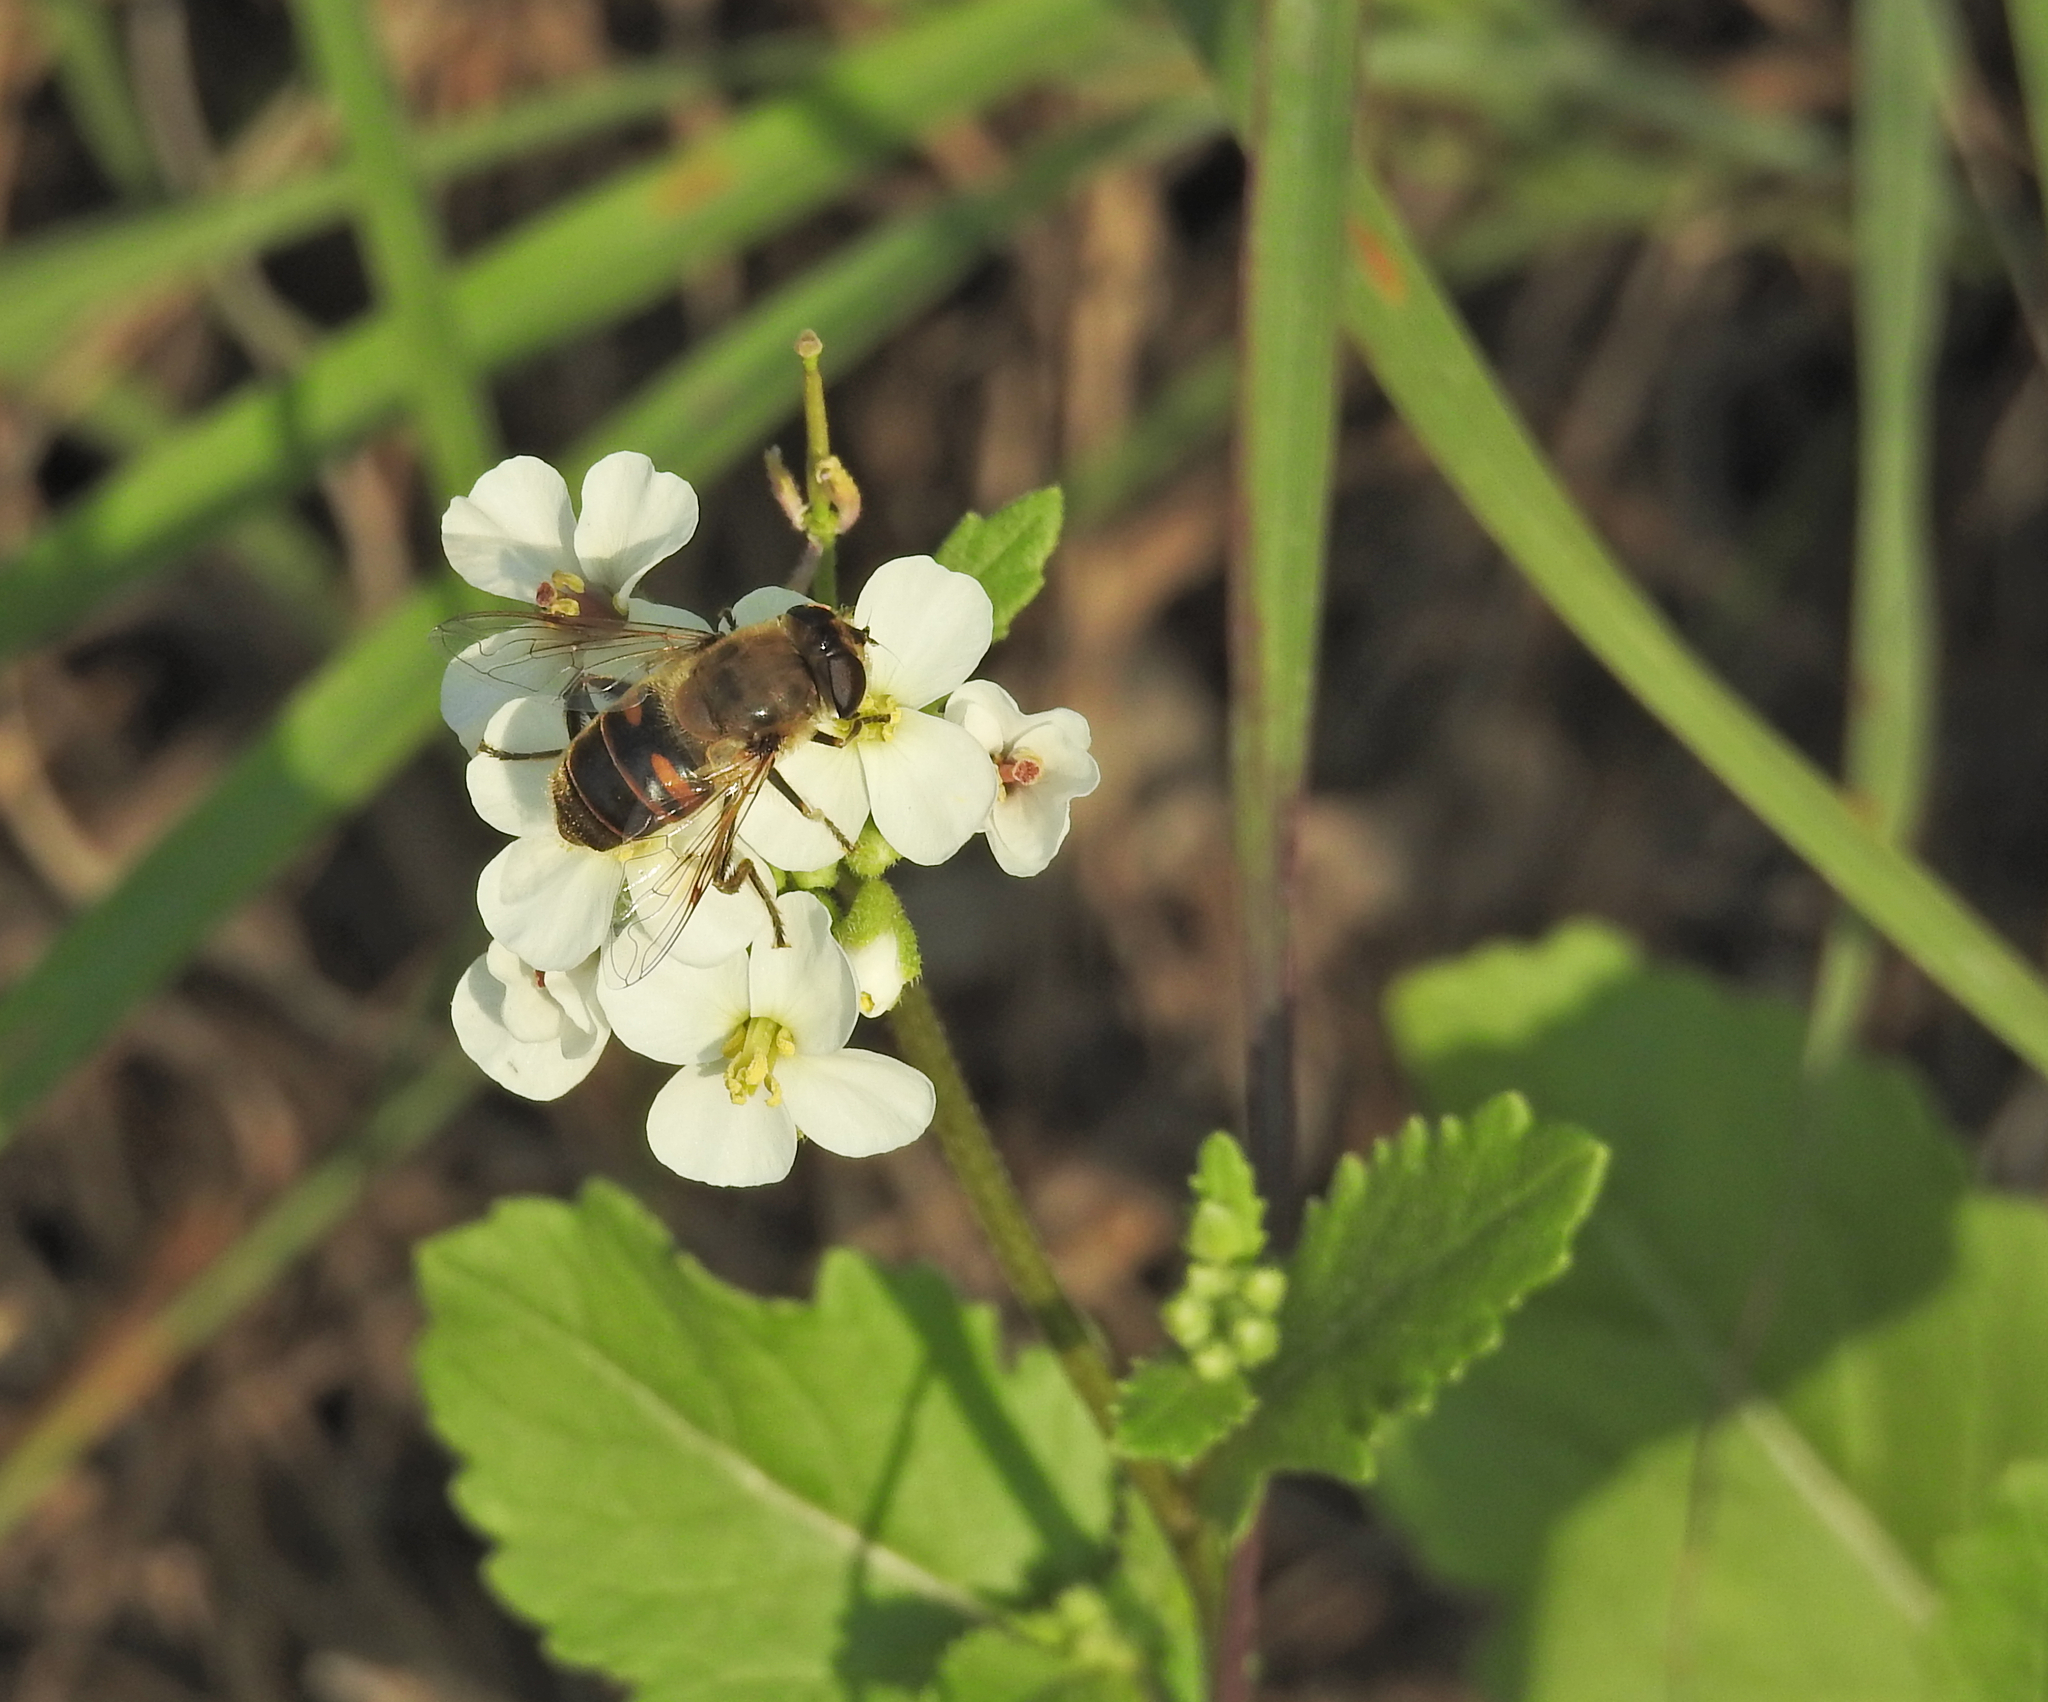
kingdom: Animalia
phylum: Arthropoda
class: Insecta
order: Diptera
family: Syrphidae
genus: Eristalis
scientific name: Eristalis tenax
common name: Drone fly
